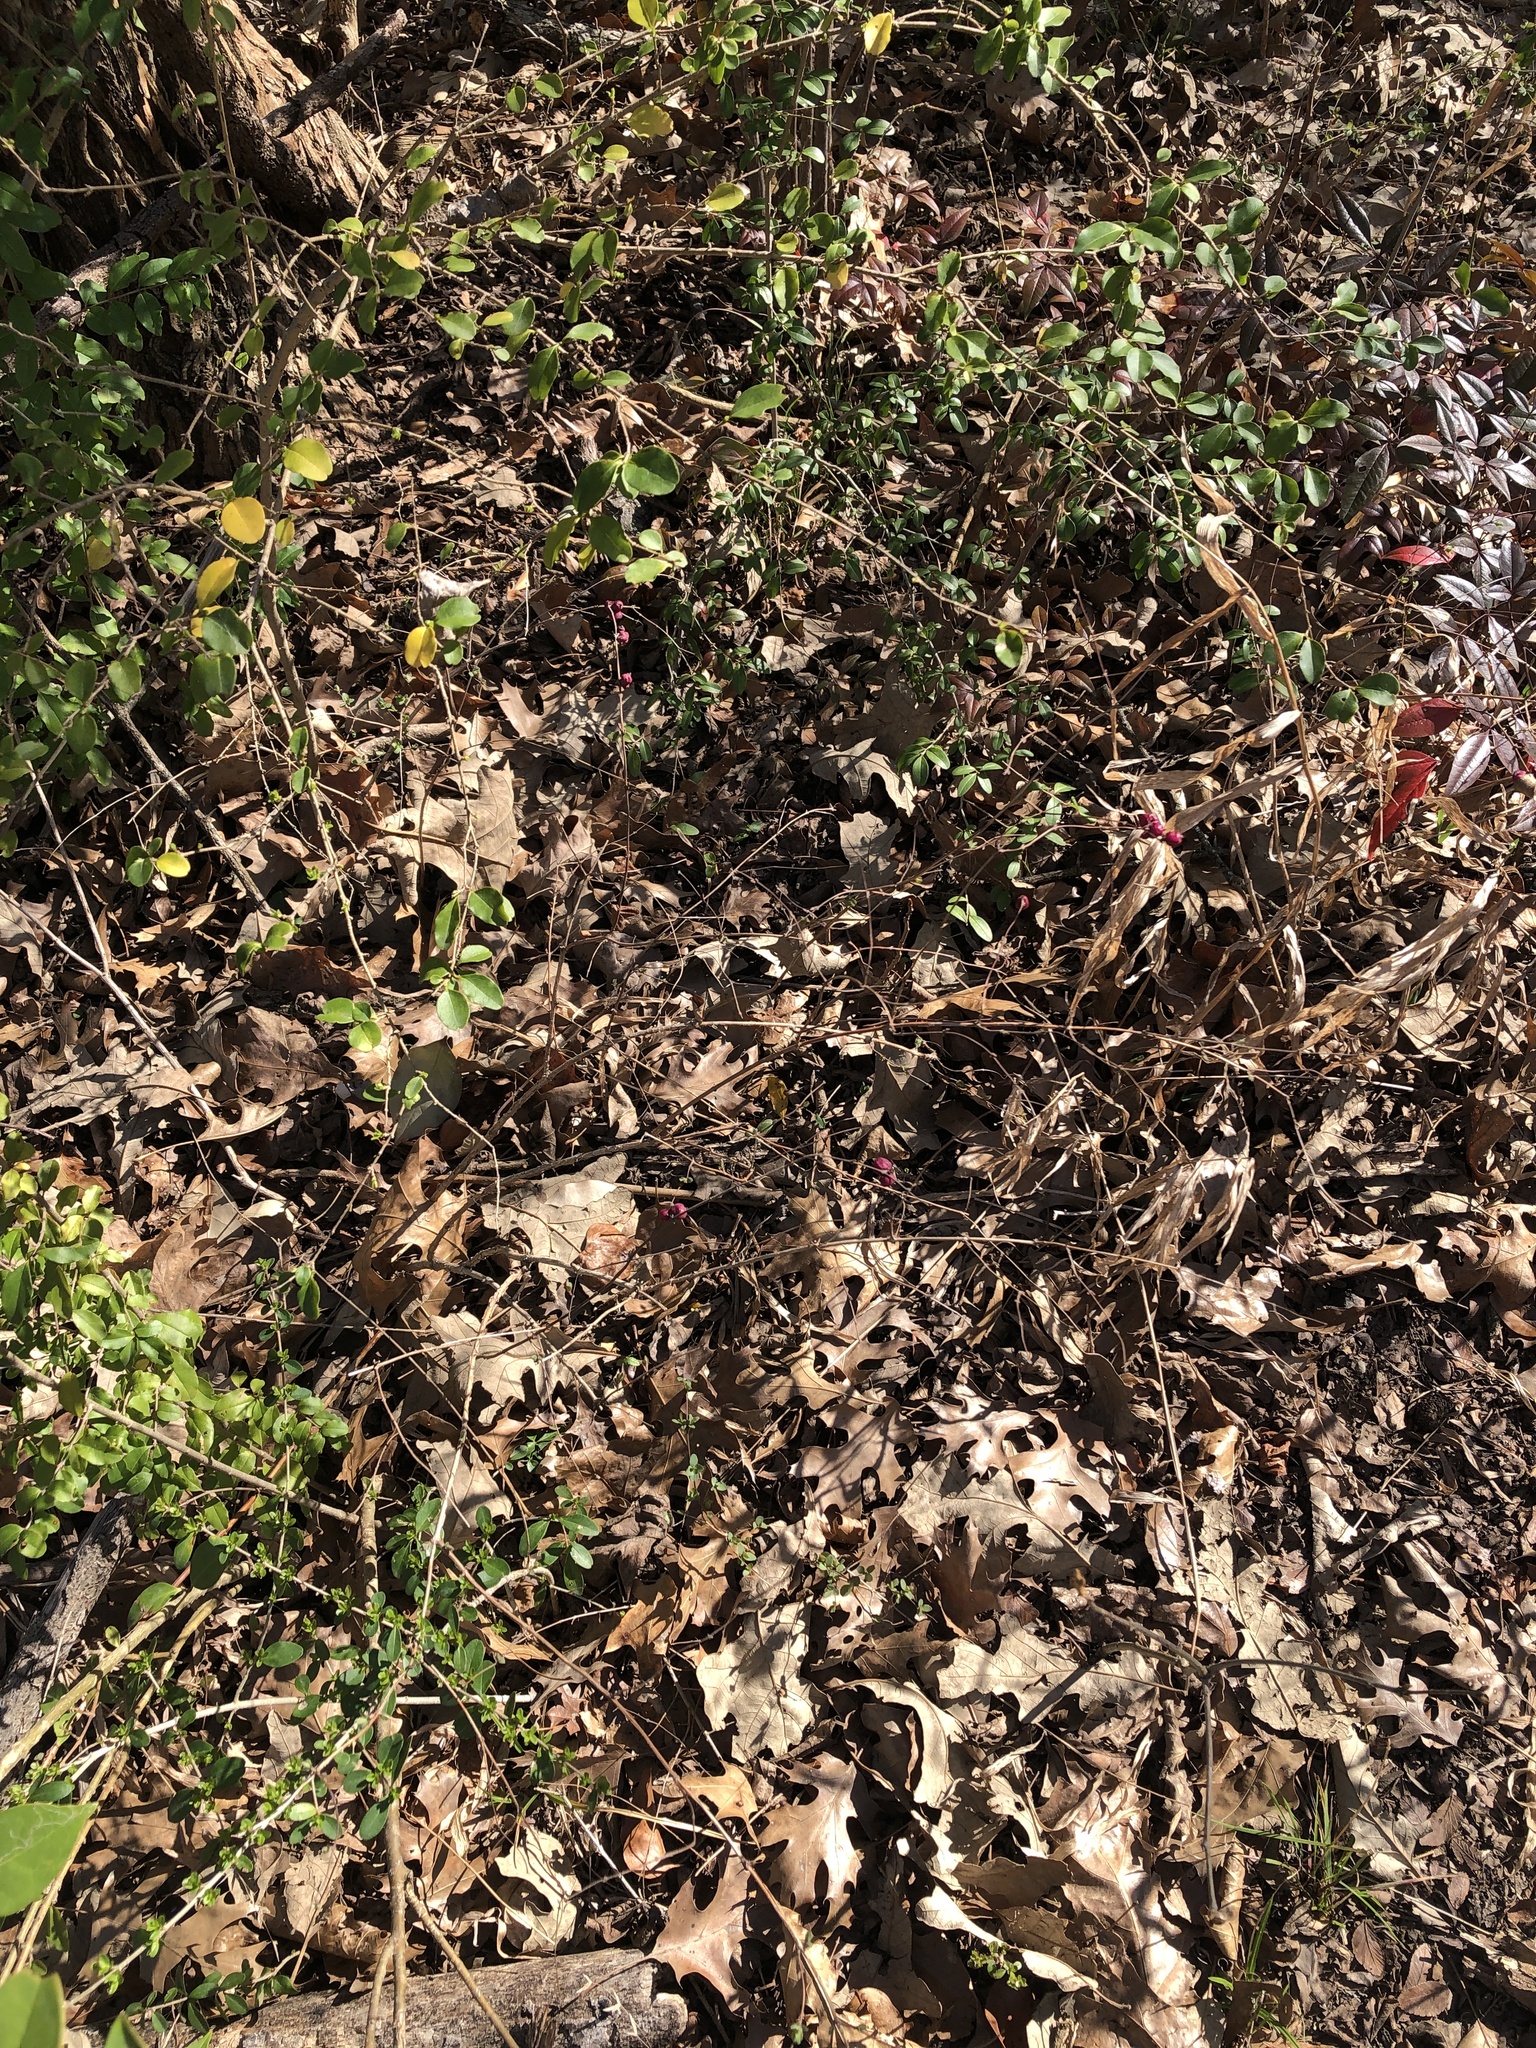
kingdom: Plantae
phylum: Tracheophyta
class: Magnoliopsida
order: Dipsacales
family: Caprifoliaceae
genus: Symphoricarpos
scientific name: Symphoricarpos orbiculatus
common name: Coralberry
